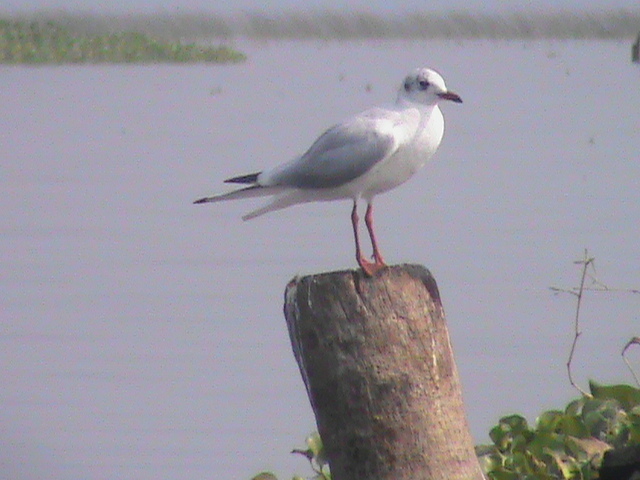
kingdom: Animalia
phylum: Chordata
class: Aves
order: Charadriiformes
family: Laridae
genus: Chroicocephalus
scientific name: Chroicocephalus ridibundus
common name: Black-headed gull
